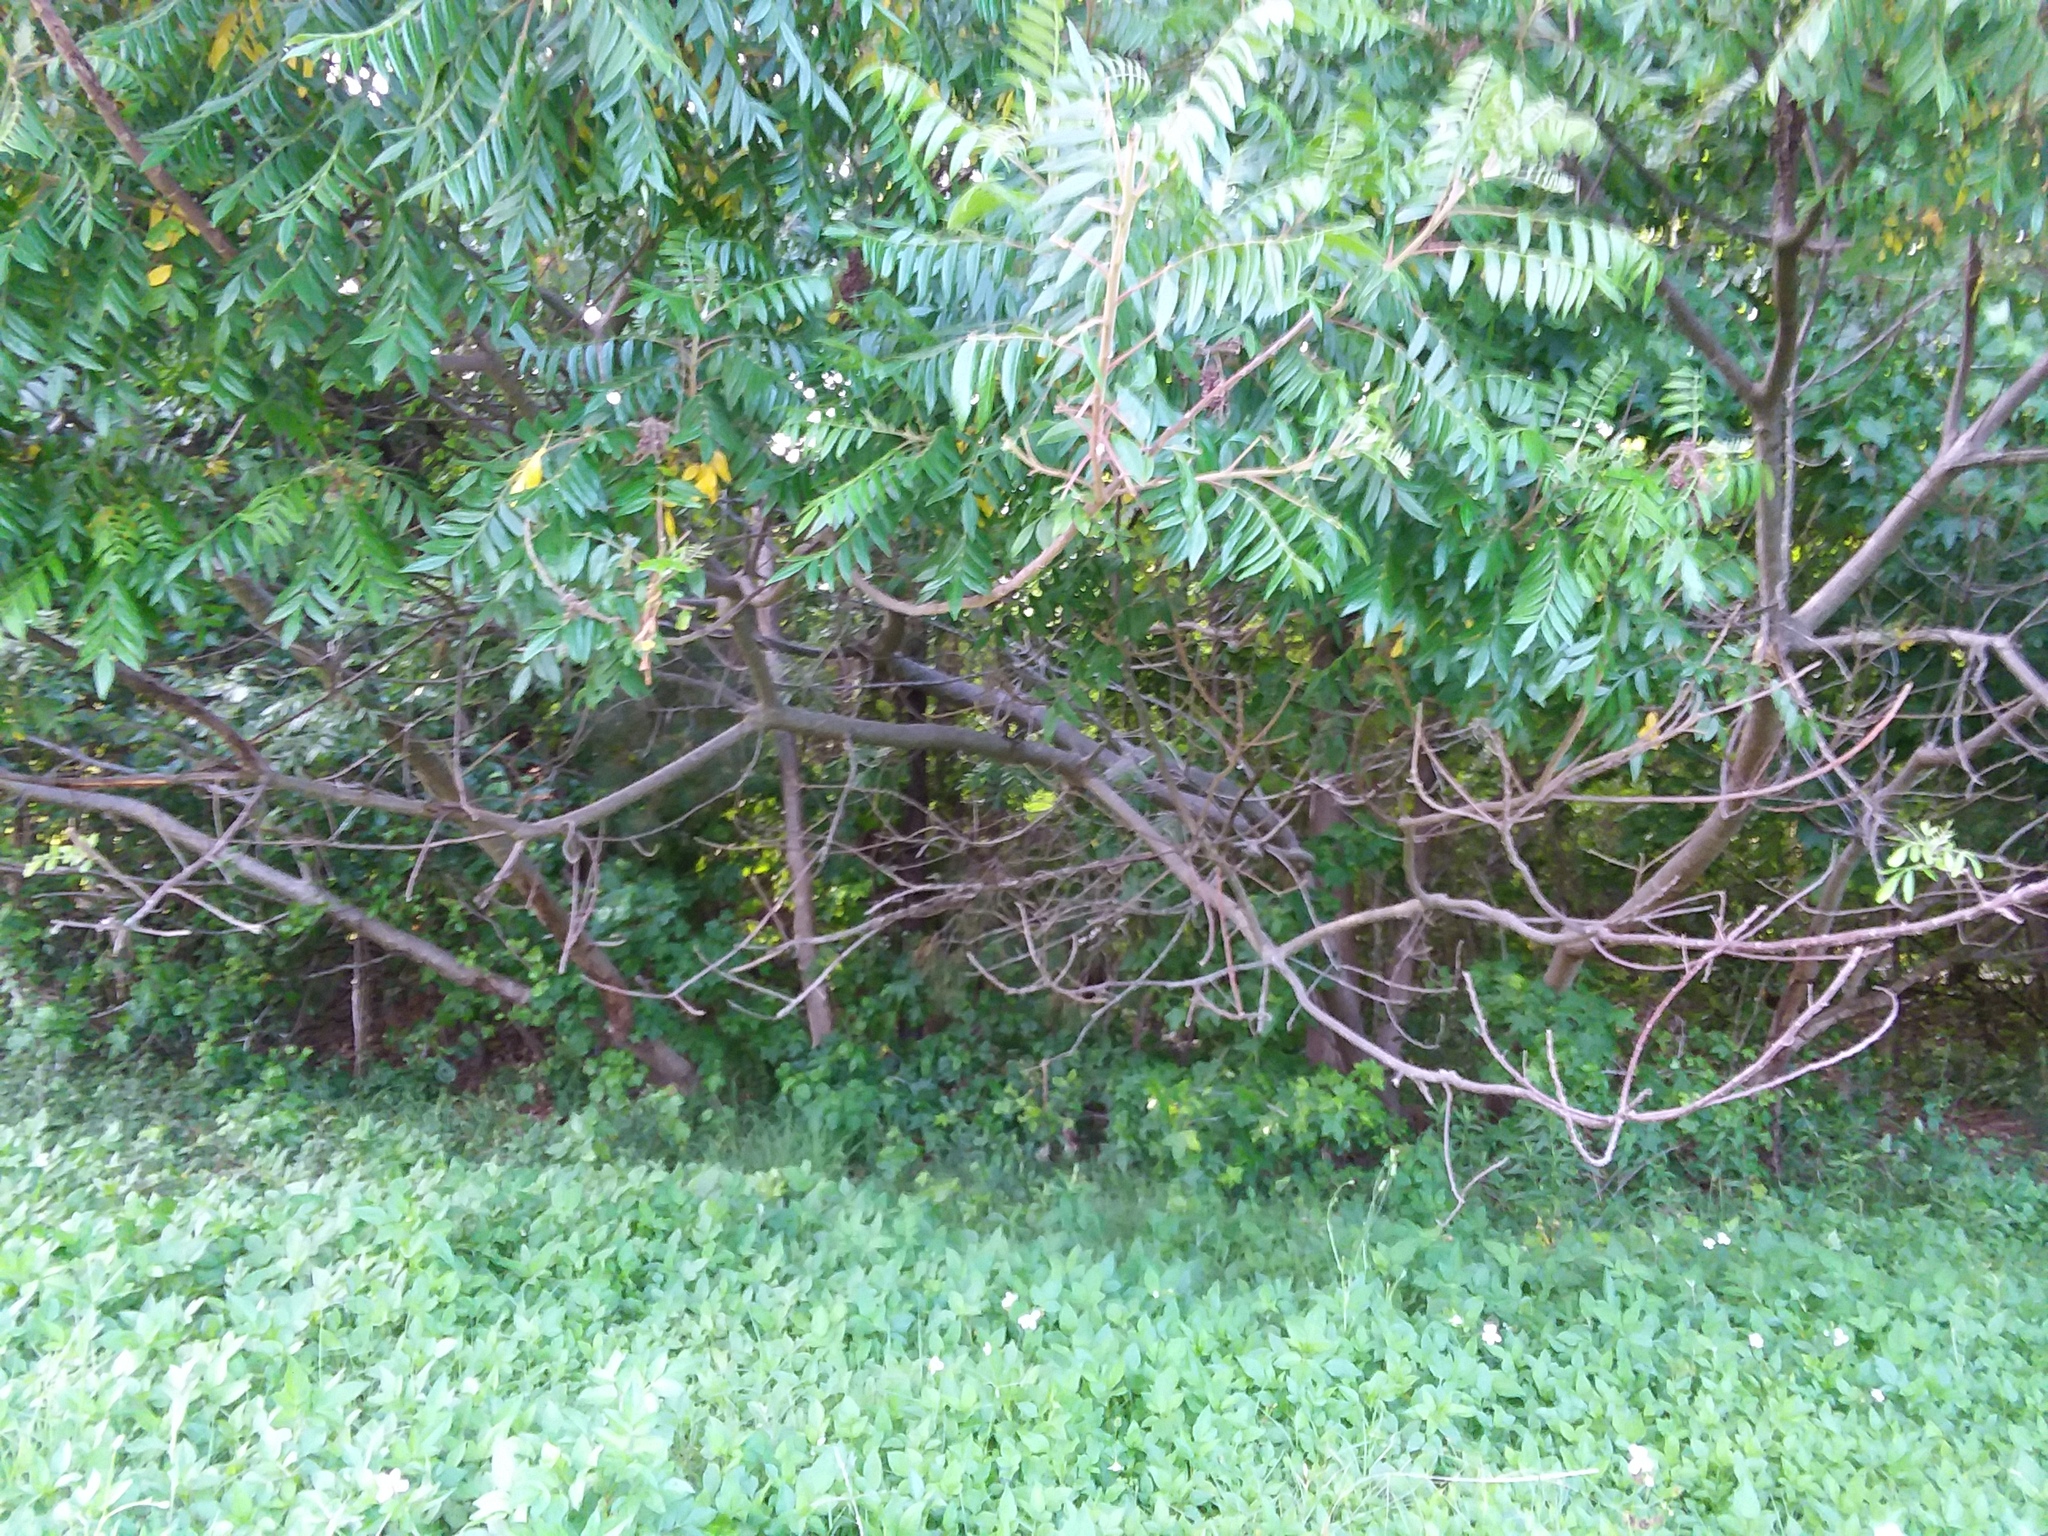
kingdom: Plantae
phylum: Tracheophyta
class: Magnoliopsida
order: Sapindales
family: Anacardiaceae
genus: Rhus
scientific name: Rhus copallina
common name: Shining sumac
